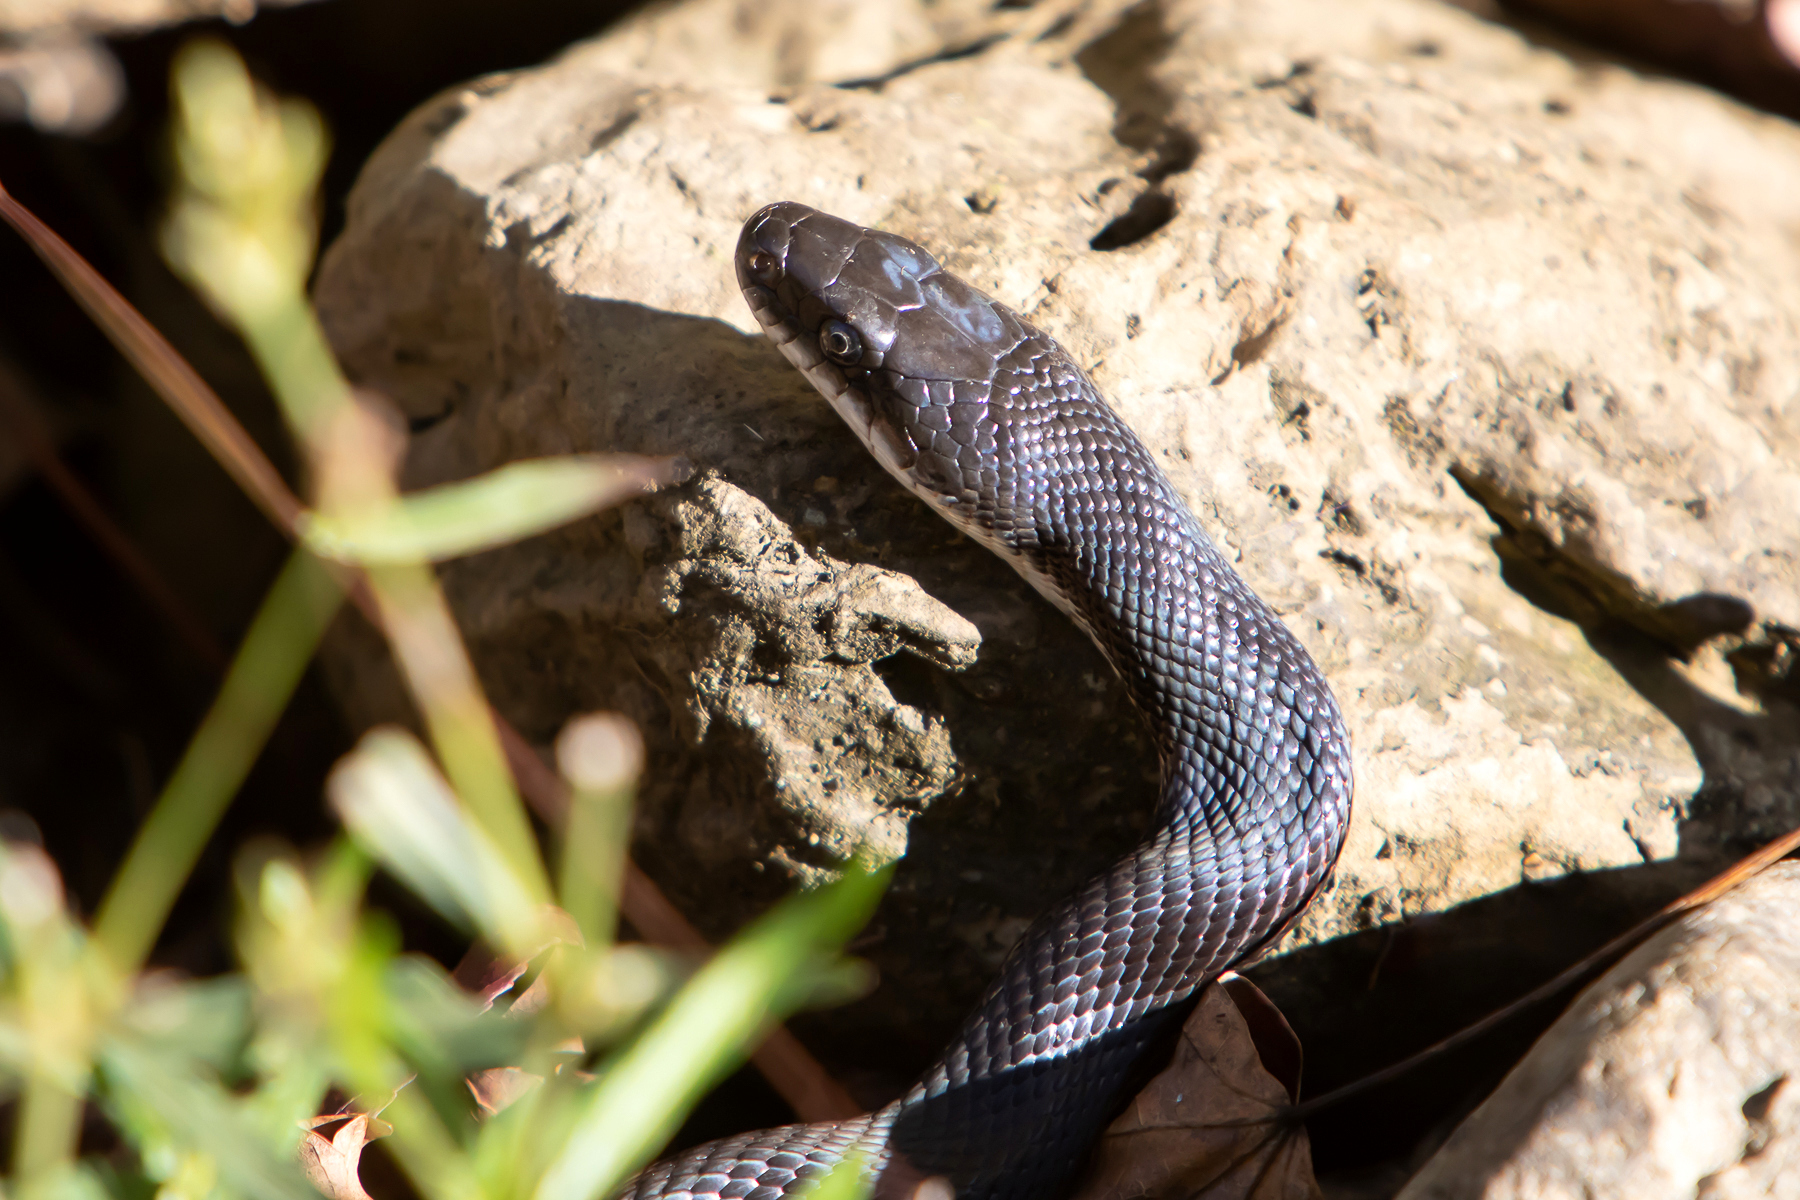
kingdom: Animalia
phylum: Chordata
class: Squamata
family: Colubridae
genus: Pantherophis
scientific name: Pantherophis obsoletus
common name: Black rat snake
